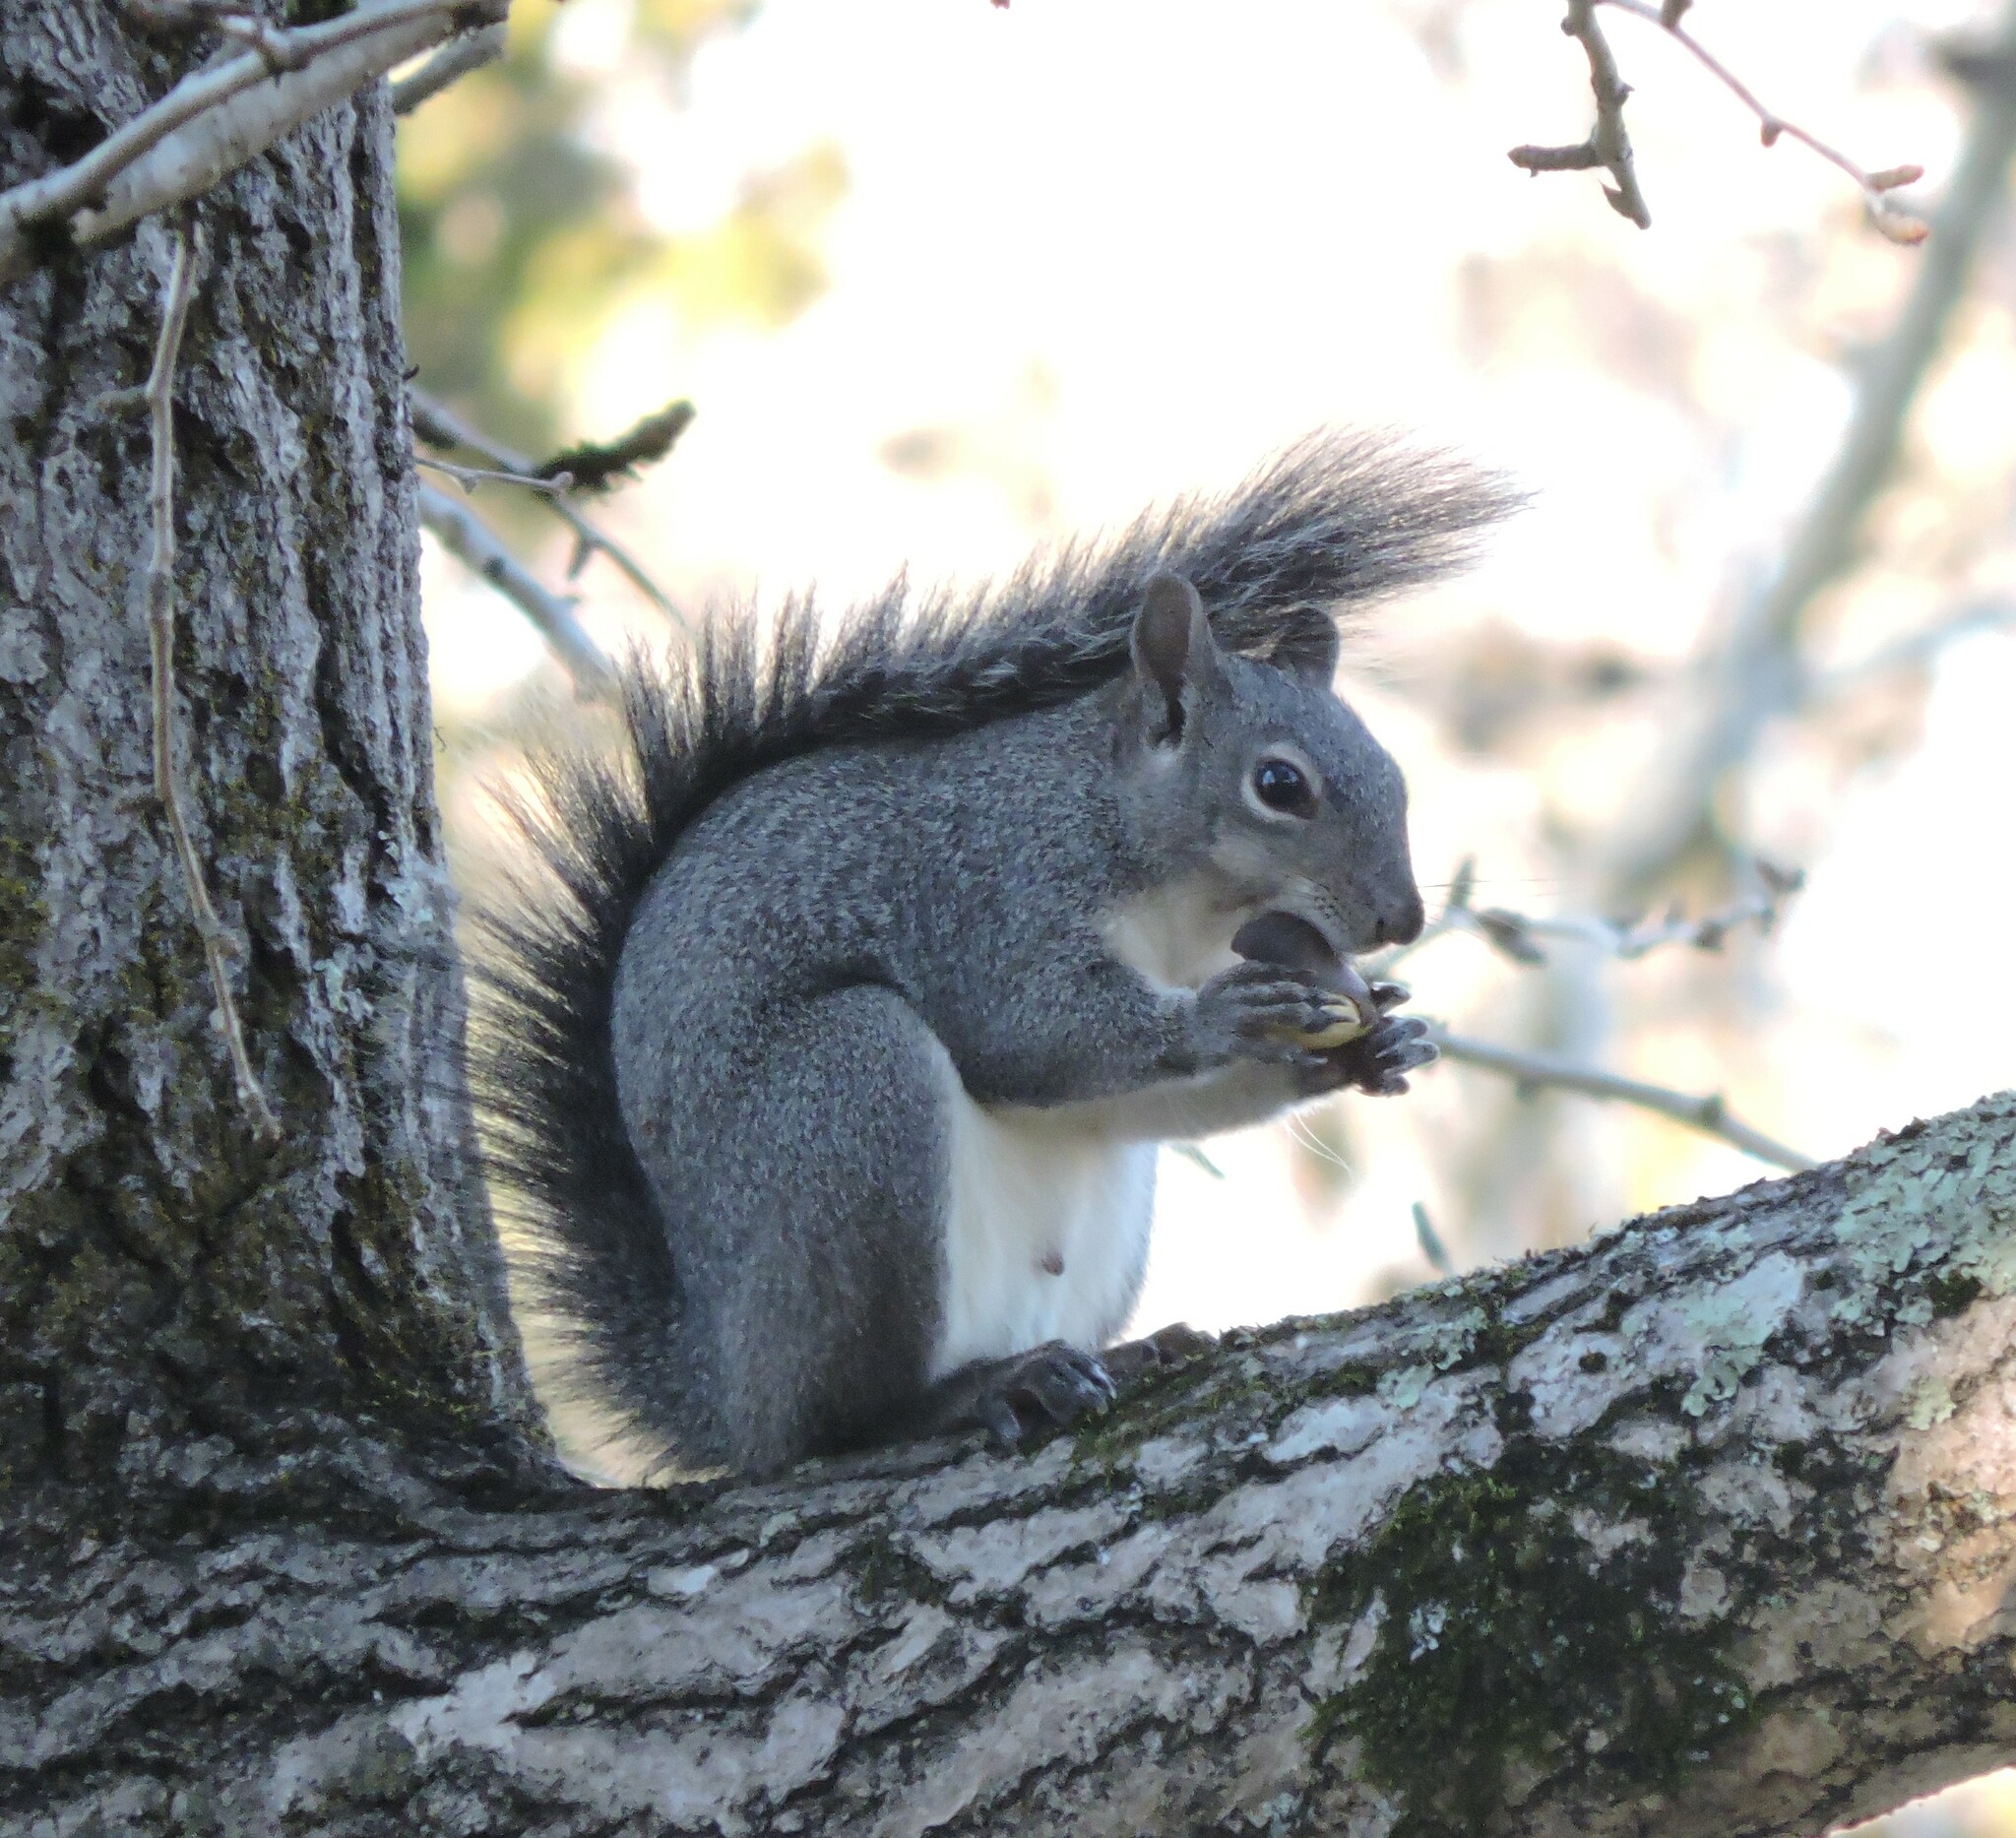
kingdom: Animalia
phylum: Chordata
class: Mammalia
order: Rodentia
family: Sciuridae
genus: Sciurus
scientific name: Sciurus griseus
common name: Western gray squirrel
